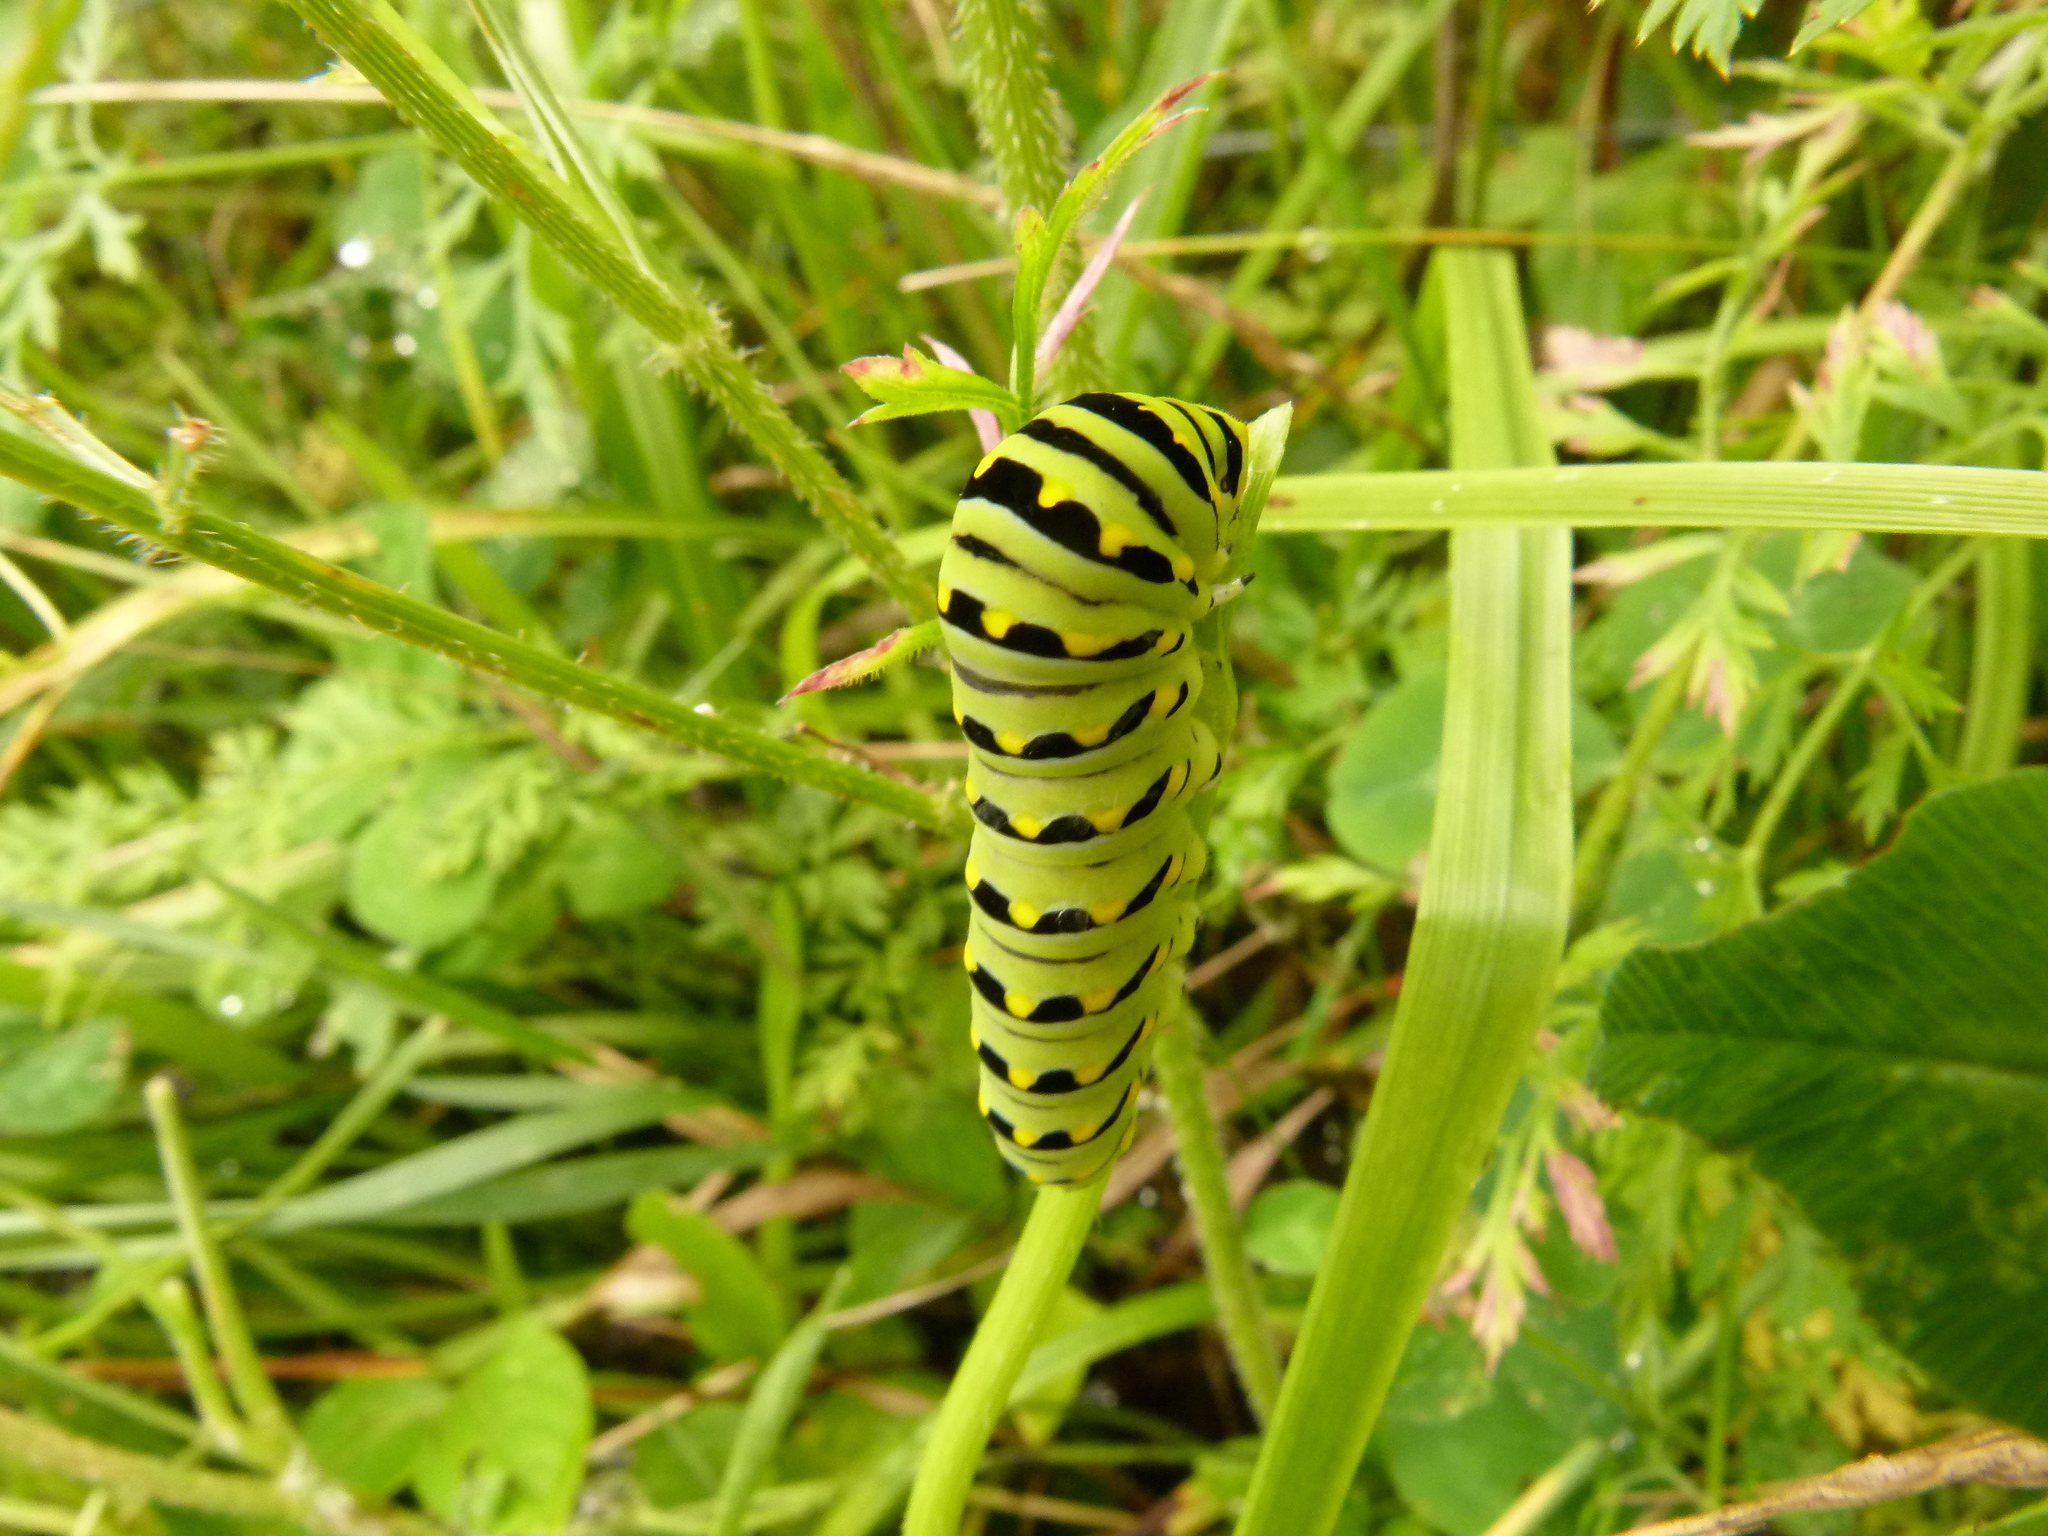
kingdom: Animalia
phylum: Arthropoda
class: Insecta
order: Lepidoptera
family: Papilionidae
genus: Papilio
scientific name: Papilio polyxenes
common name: Black swallowtail
